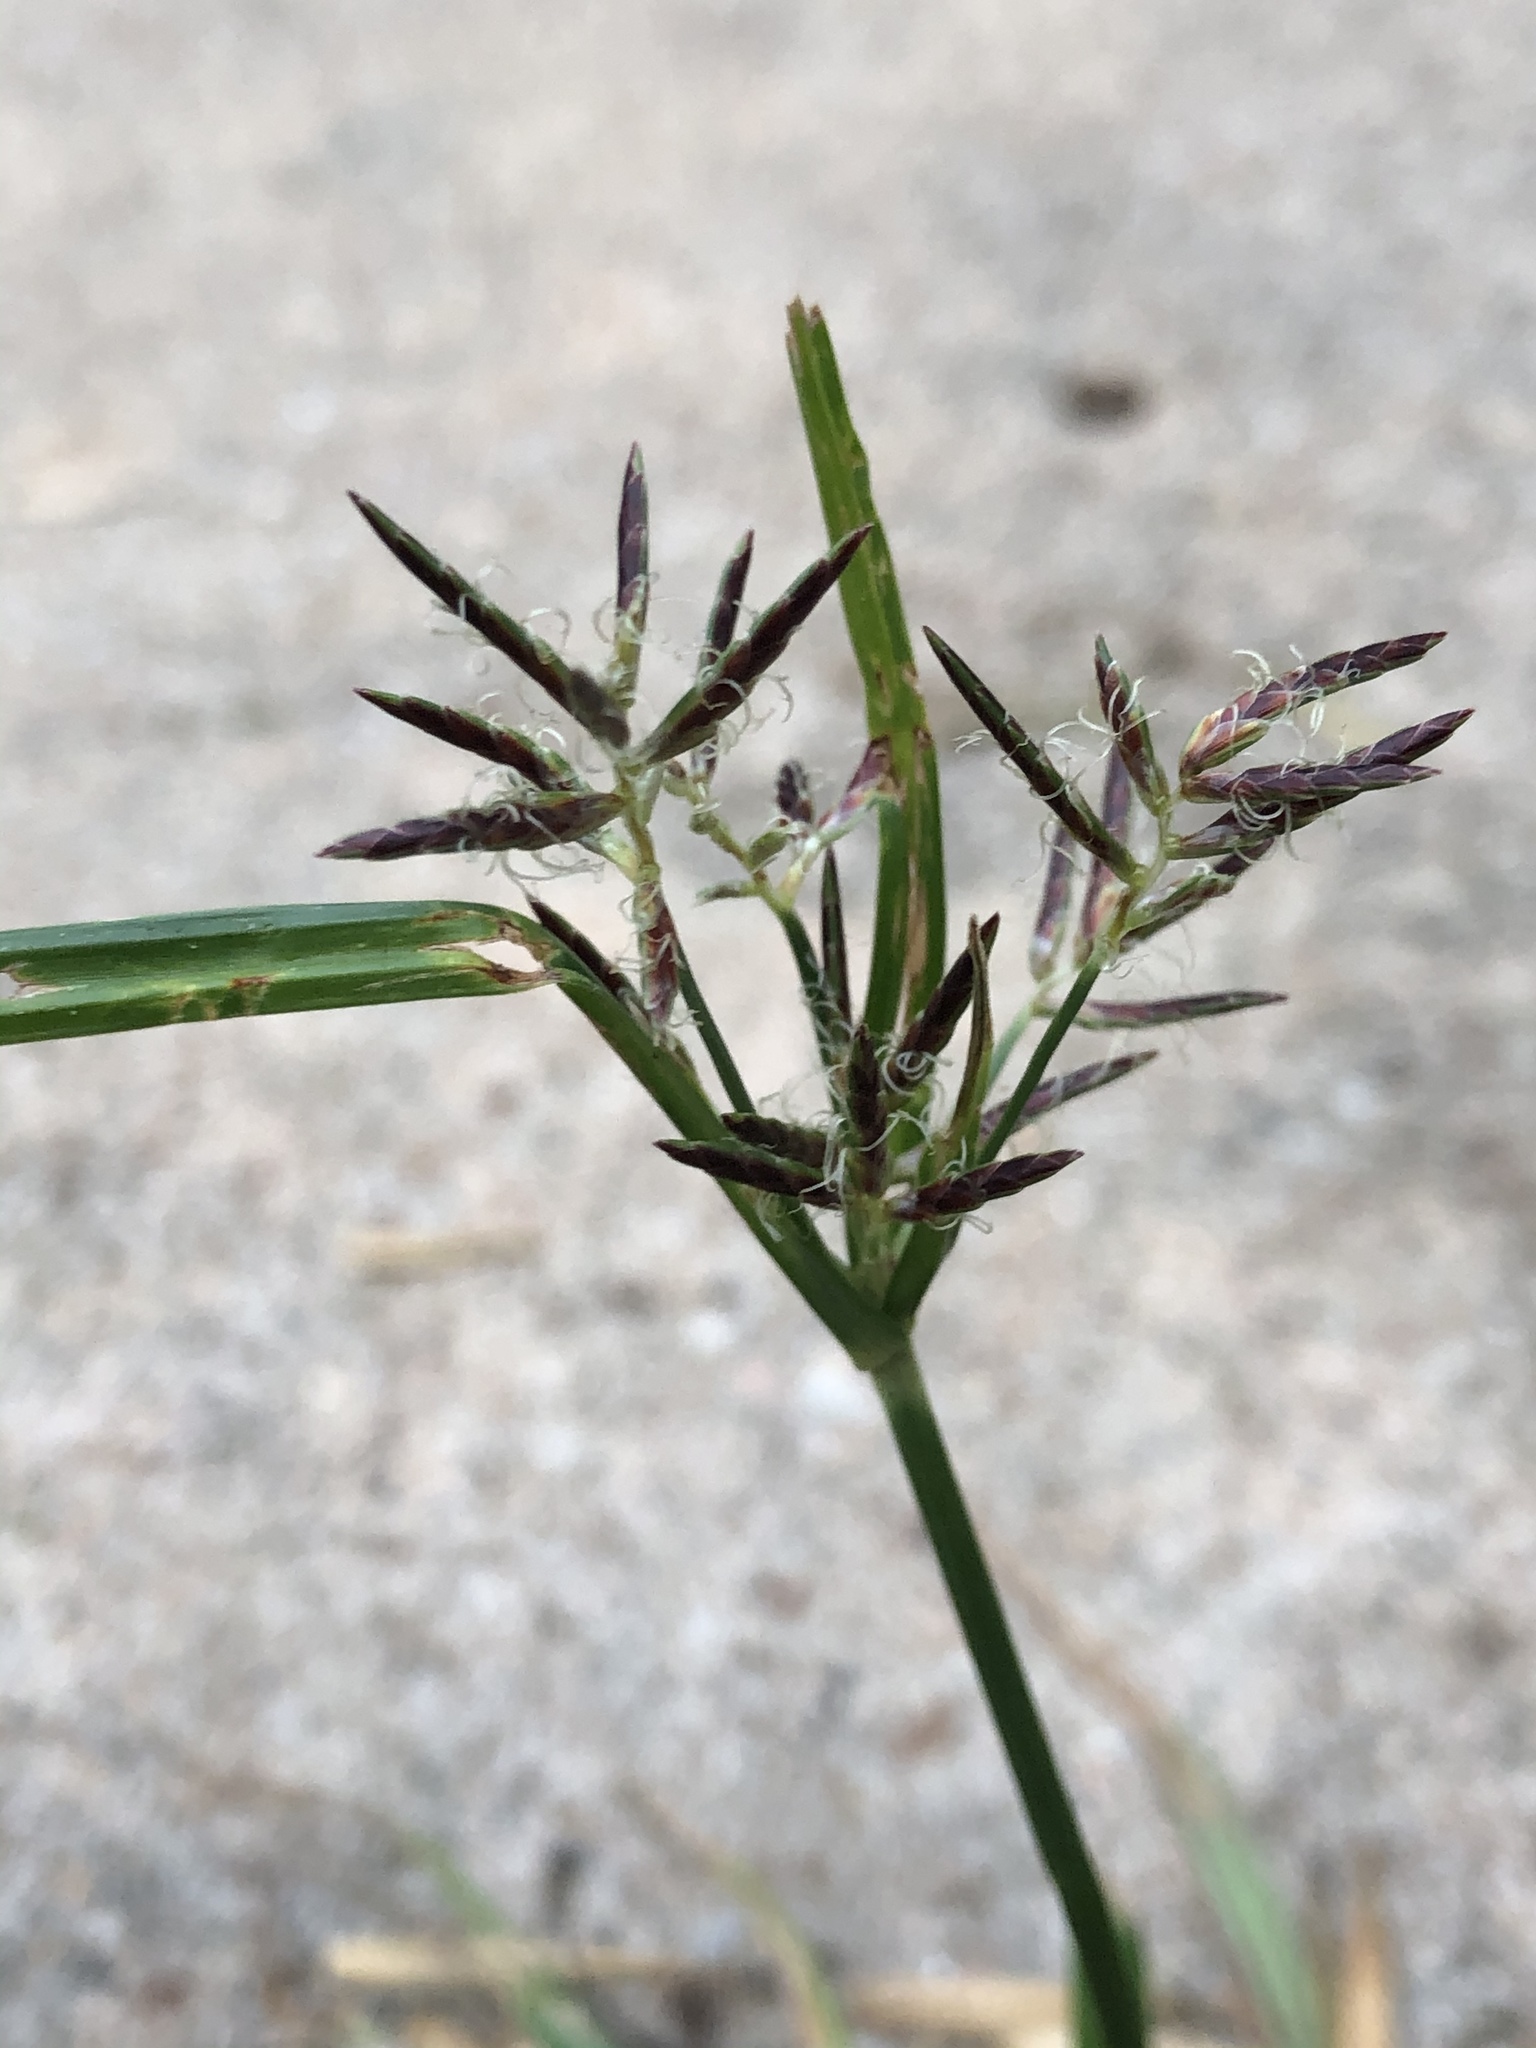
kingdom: Plantae
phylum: Tracheophyta
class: Liliopsida
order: Poales
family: Cyperaceae
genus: Cyperus
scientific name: Cyperus rotundus
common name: Nutgrass
